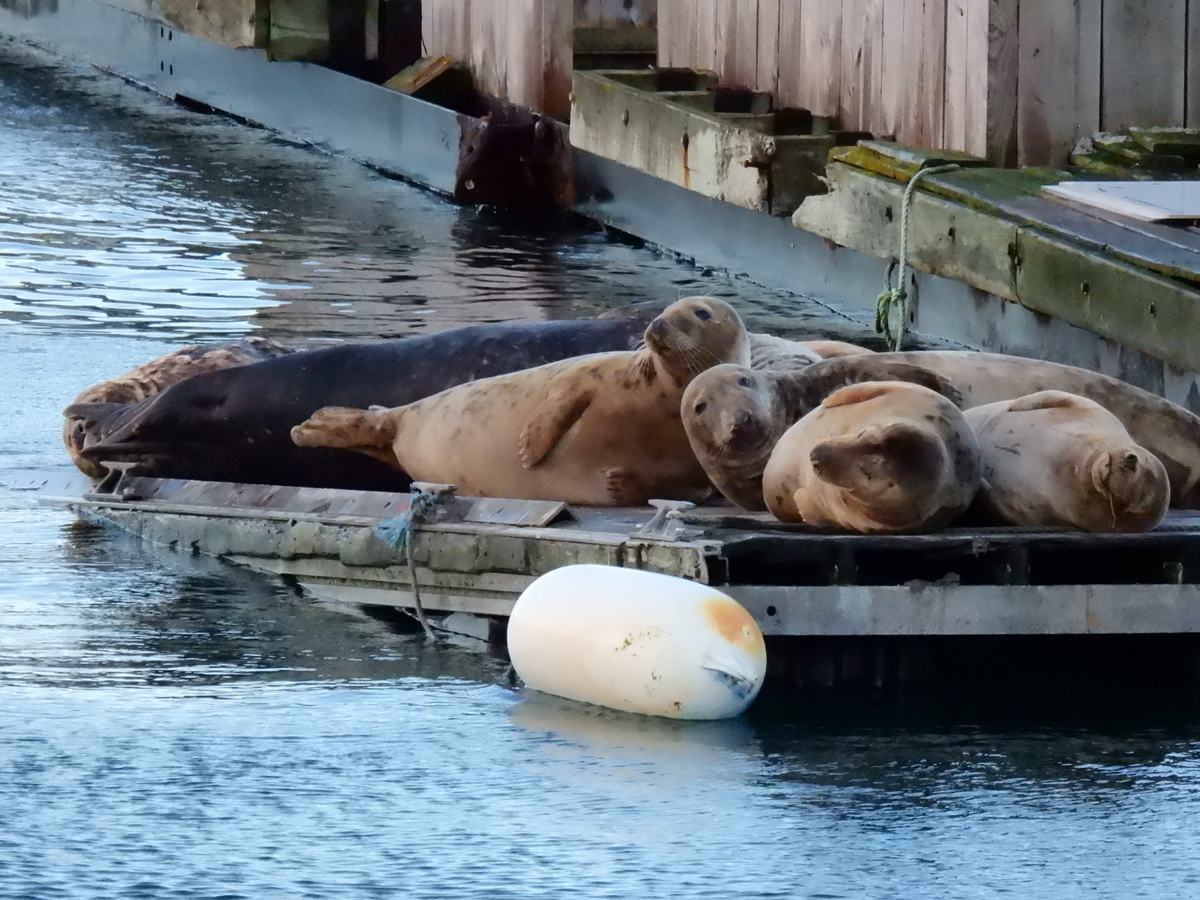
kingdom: Animalia
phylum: Chordata
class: Mammalia
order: Carnivora
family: Phocidae
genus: Halichoerus
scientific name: Halichoerus grypus
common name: Grey seal
